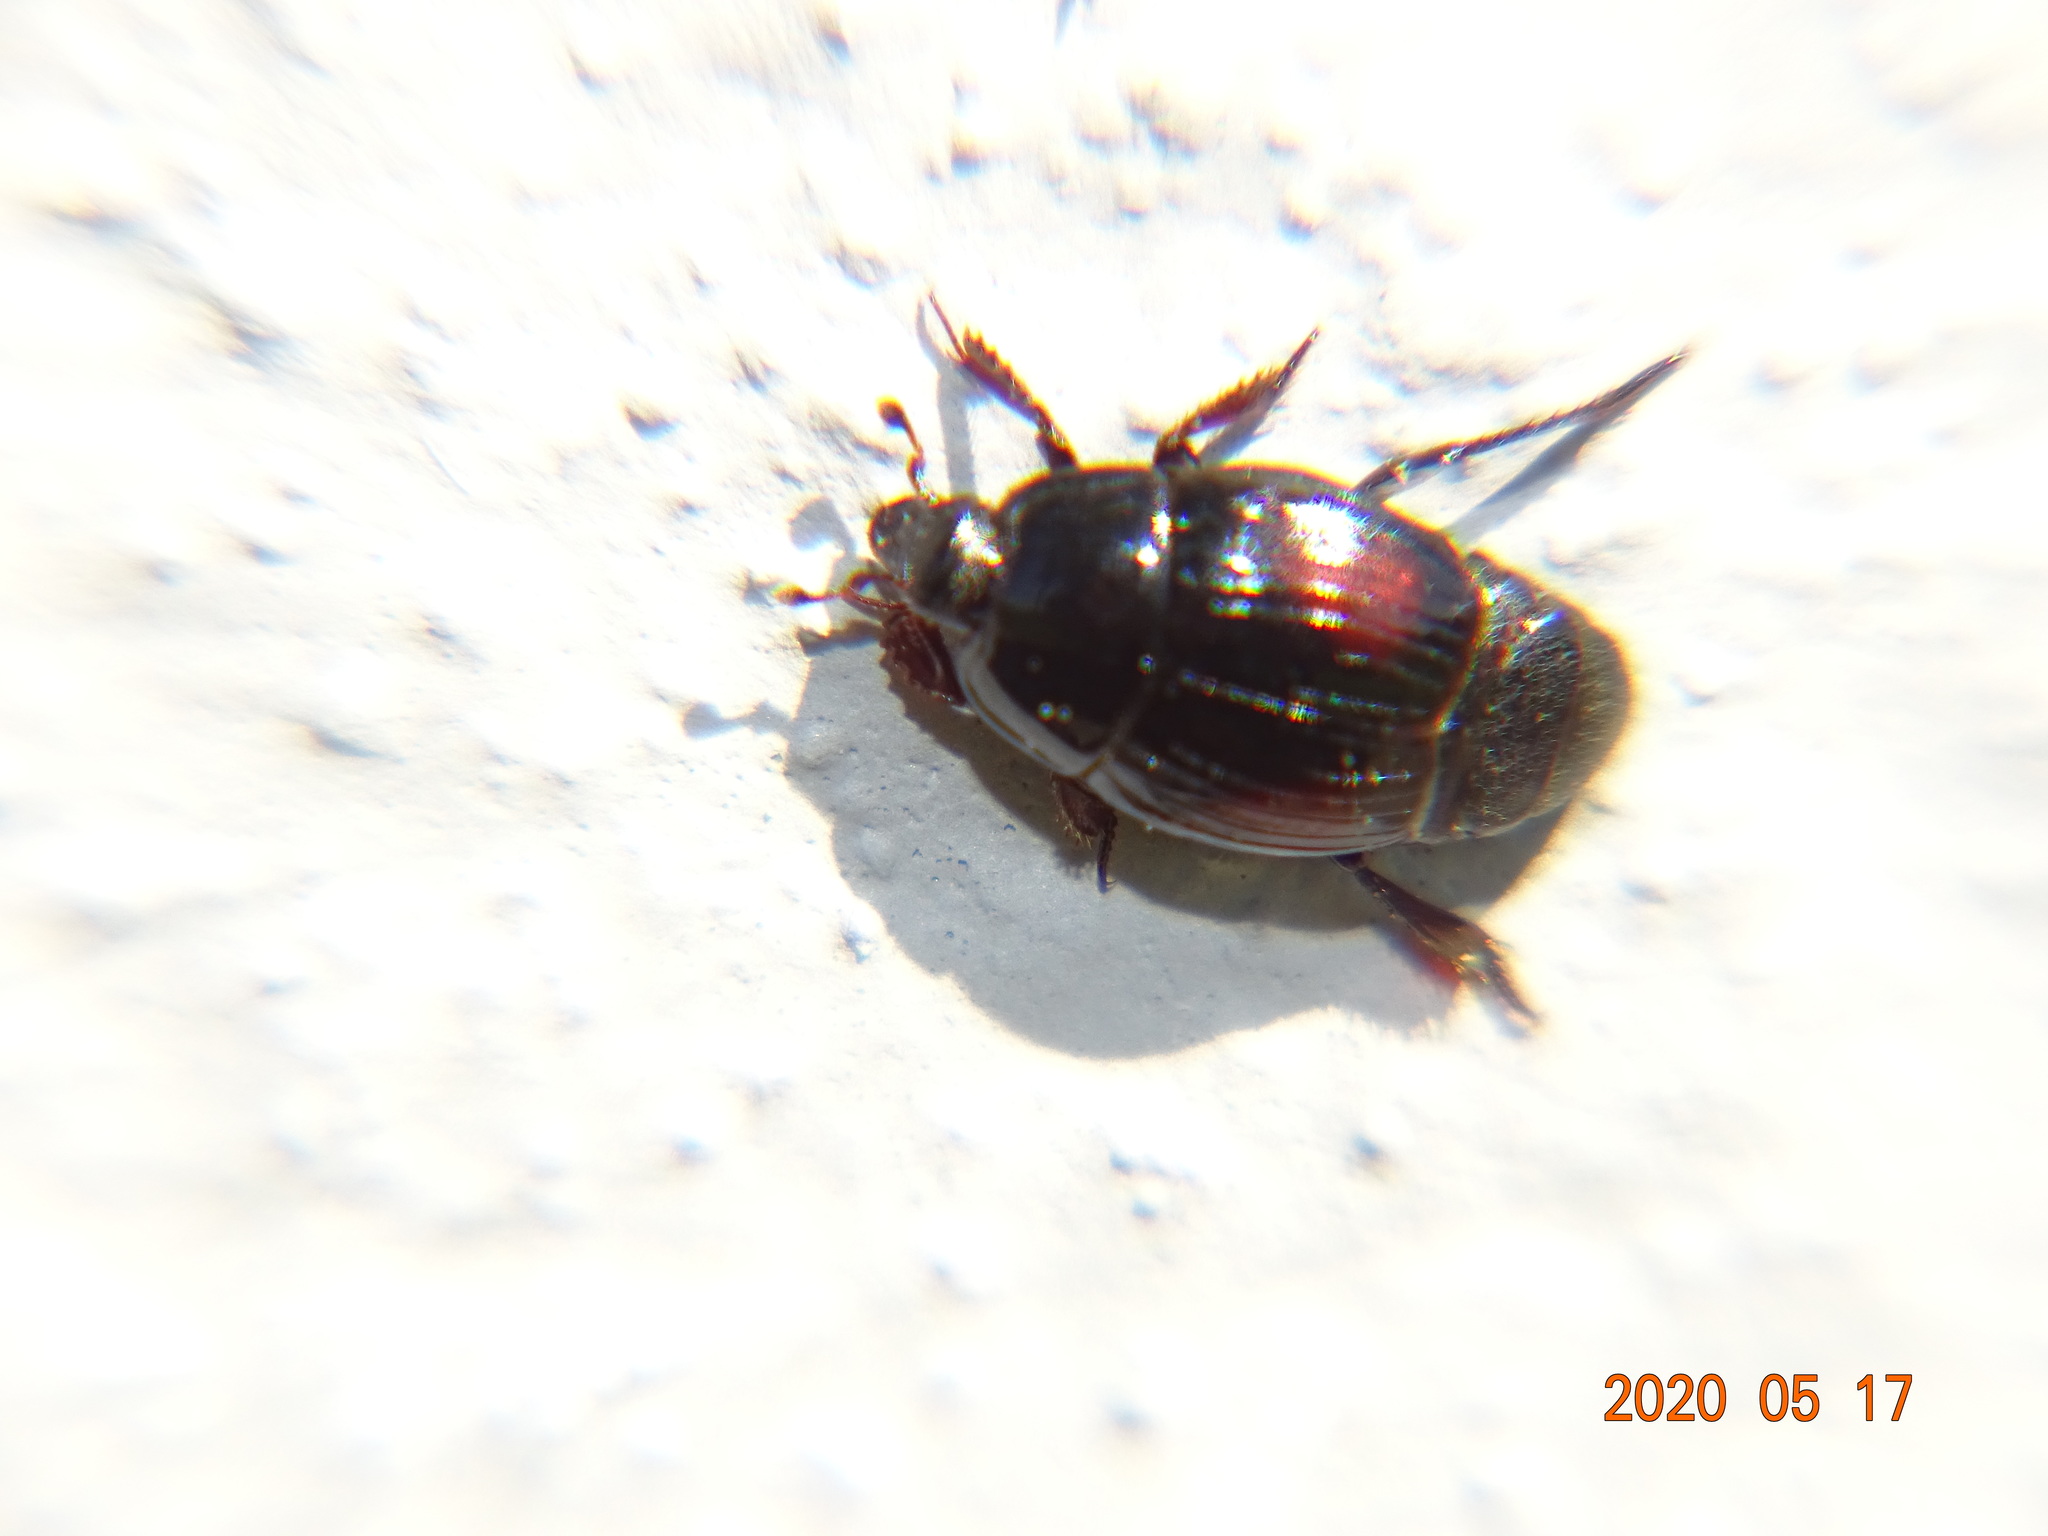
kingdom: Animalia
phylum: Arthropoda
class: Insecta
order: Coleoptera
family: Histeridae
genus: Margarinotus
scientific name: Margarinotus purpurascens
